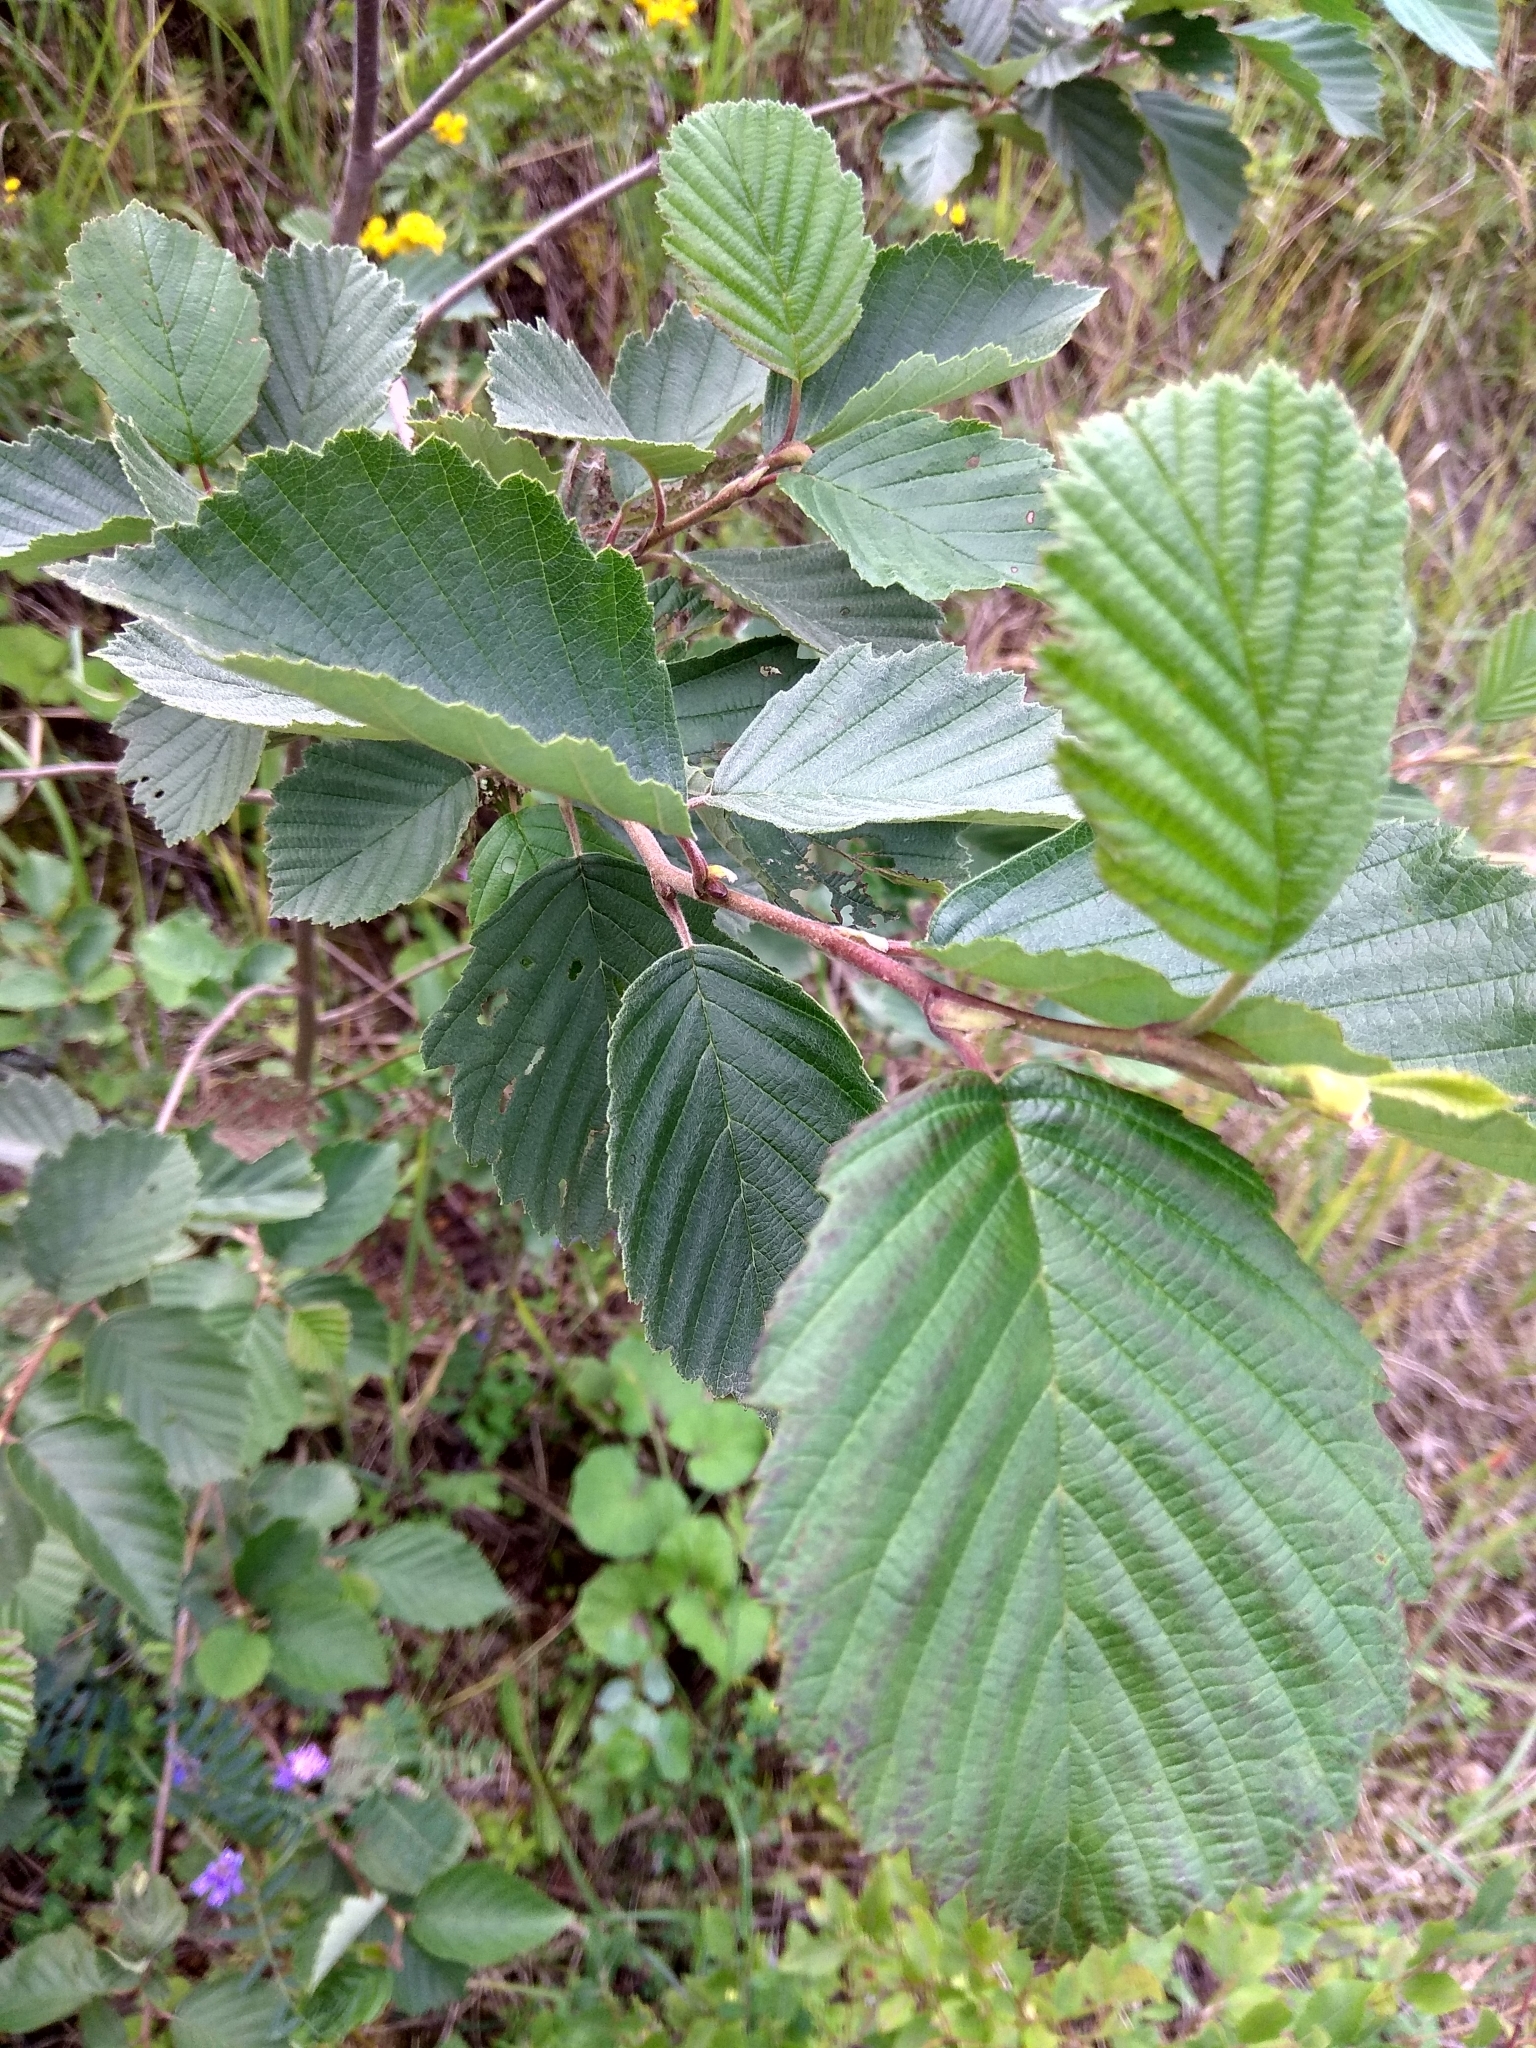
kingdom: Plantae
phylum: Tracheophyta
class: Magnoliopsida
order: Fagales
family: Betulaceae
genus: Alnus
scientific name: Alnus incana
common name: Grey alder
